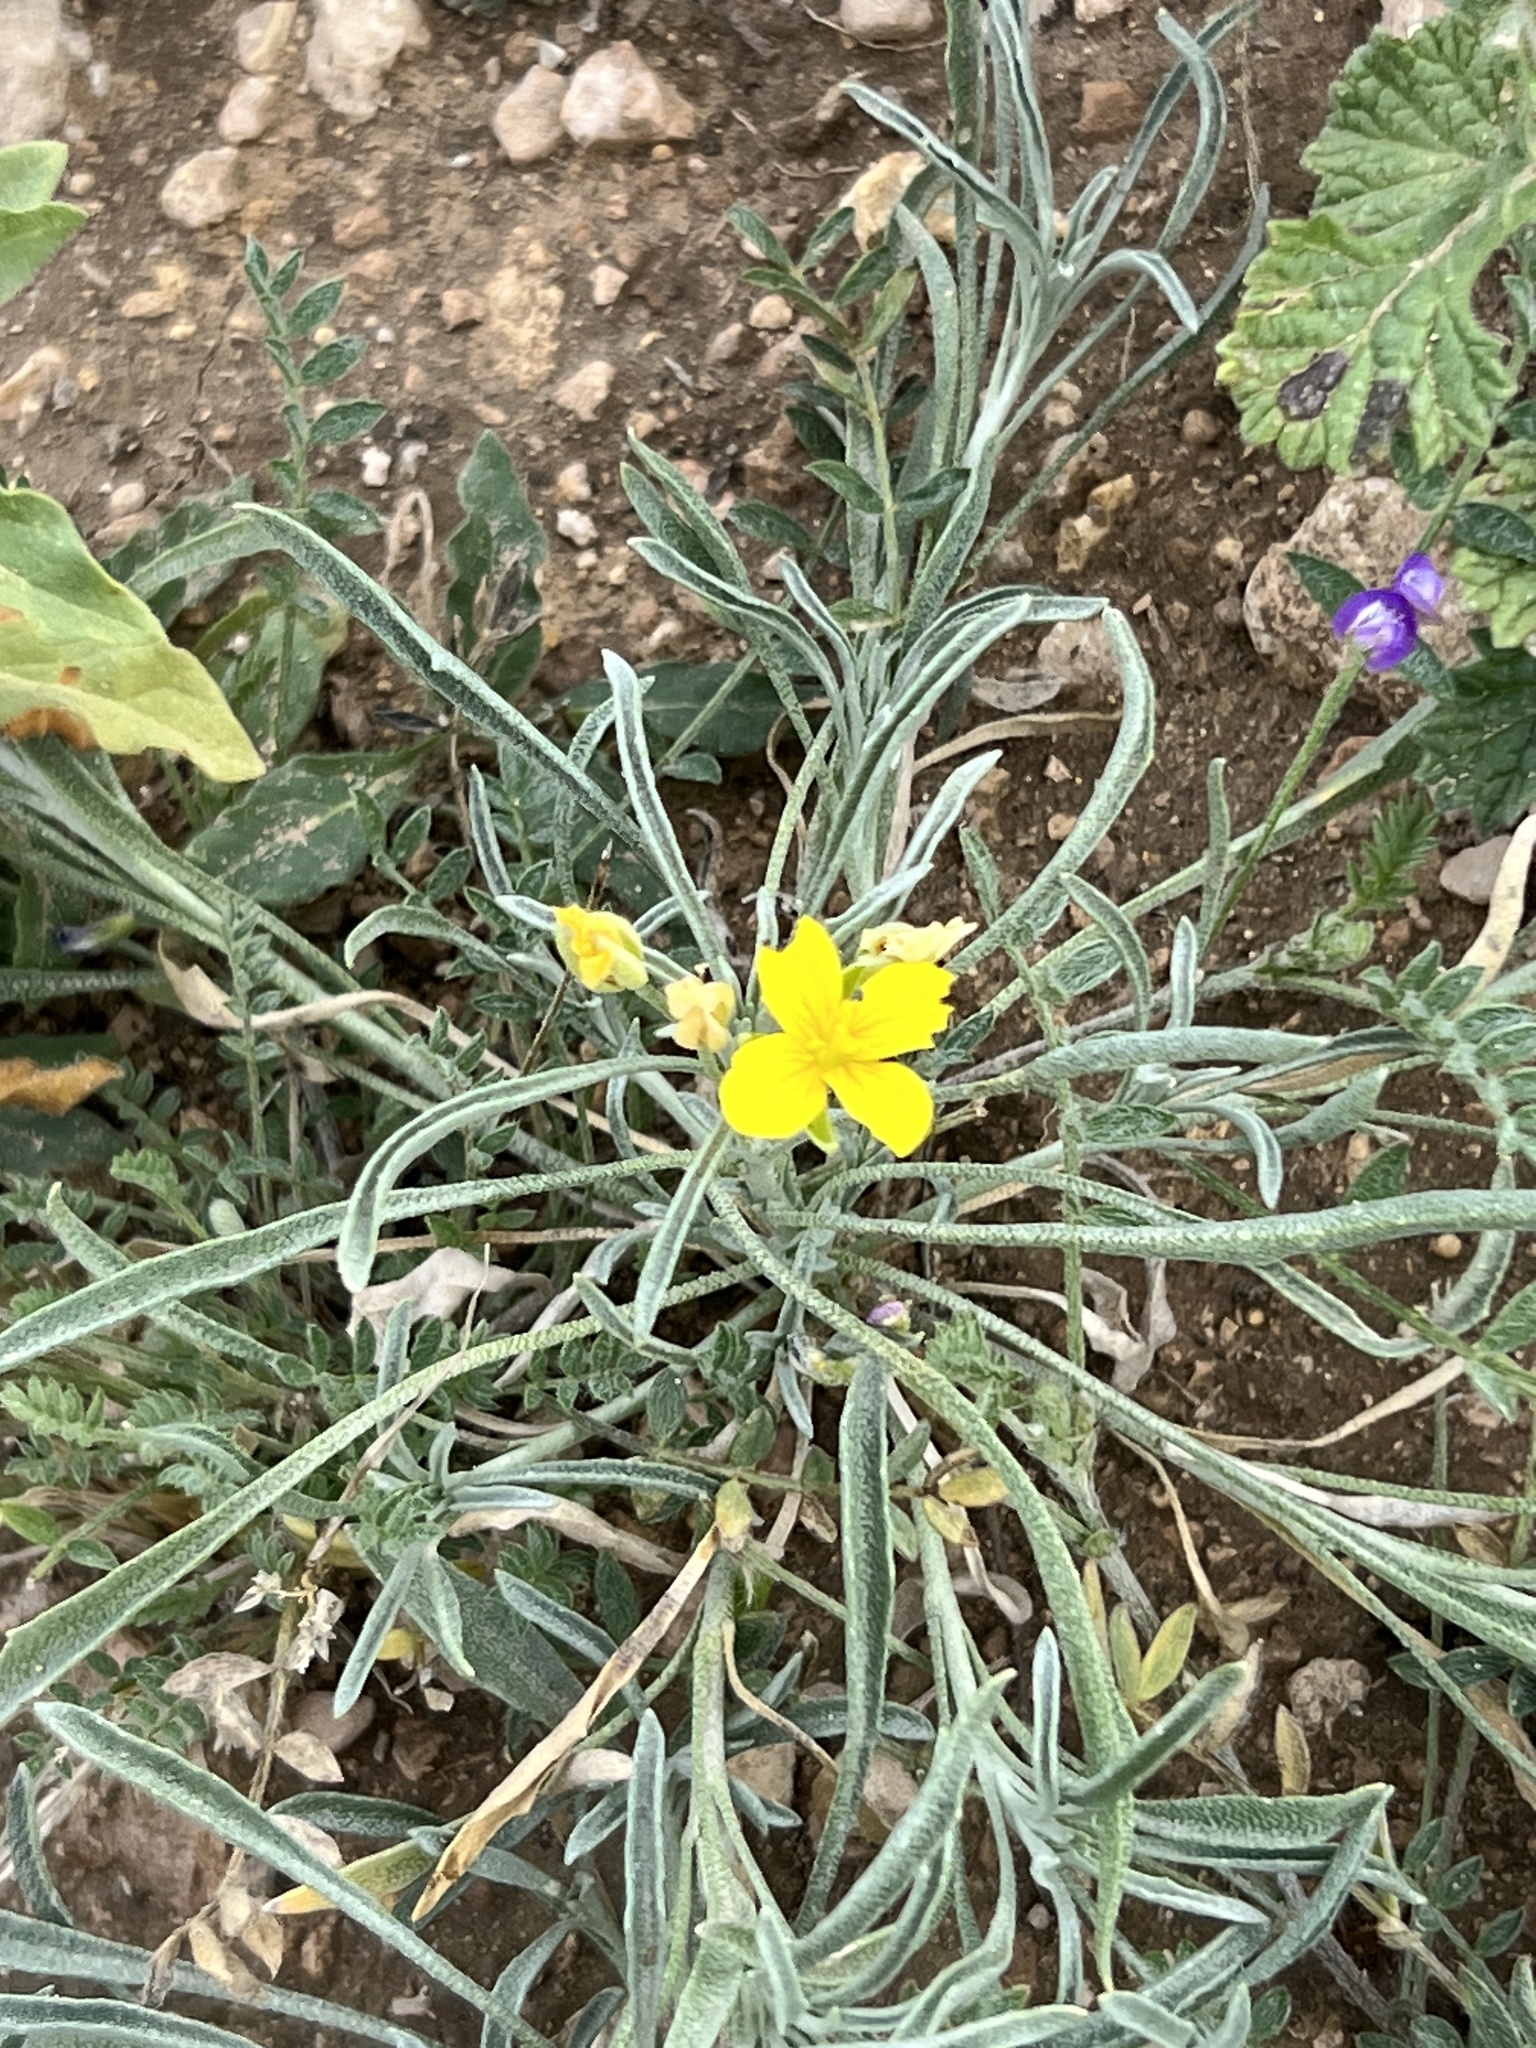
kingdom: Plantae
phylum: Tracheophyta
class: Magnoliopsida
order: Brassicales
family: Brassicaceae
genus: Physaria
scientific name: Physaria fendleri
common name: Fendler's bladderpod
